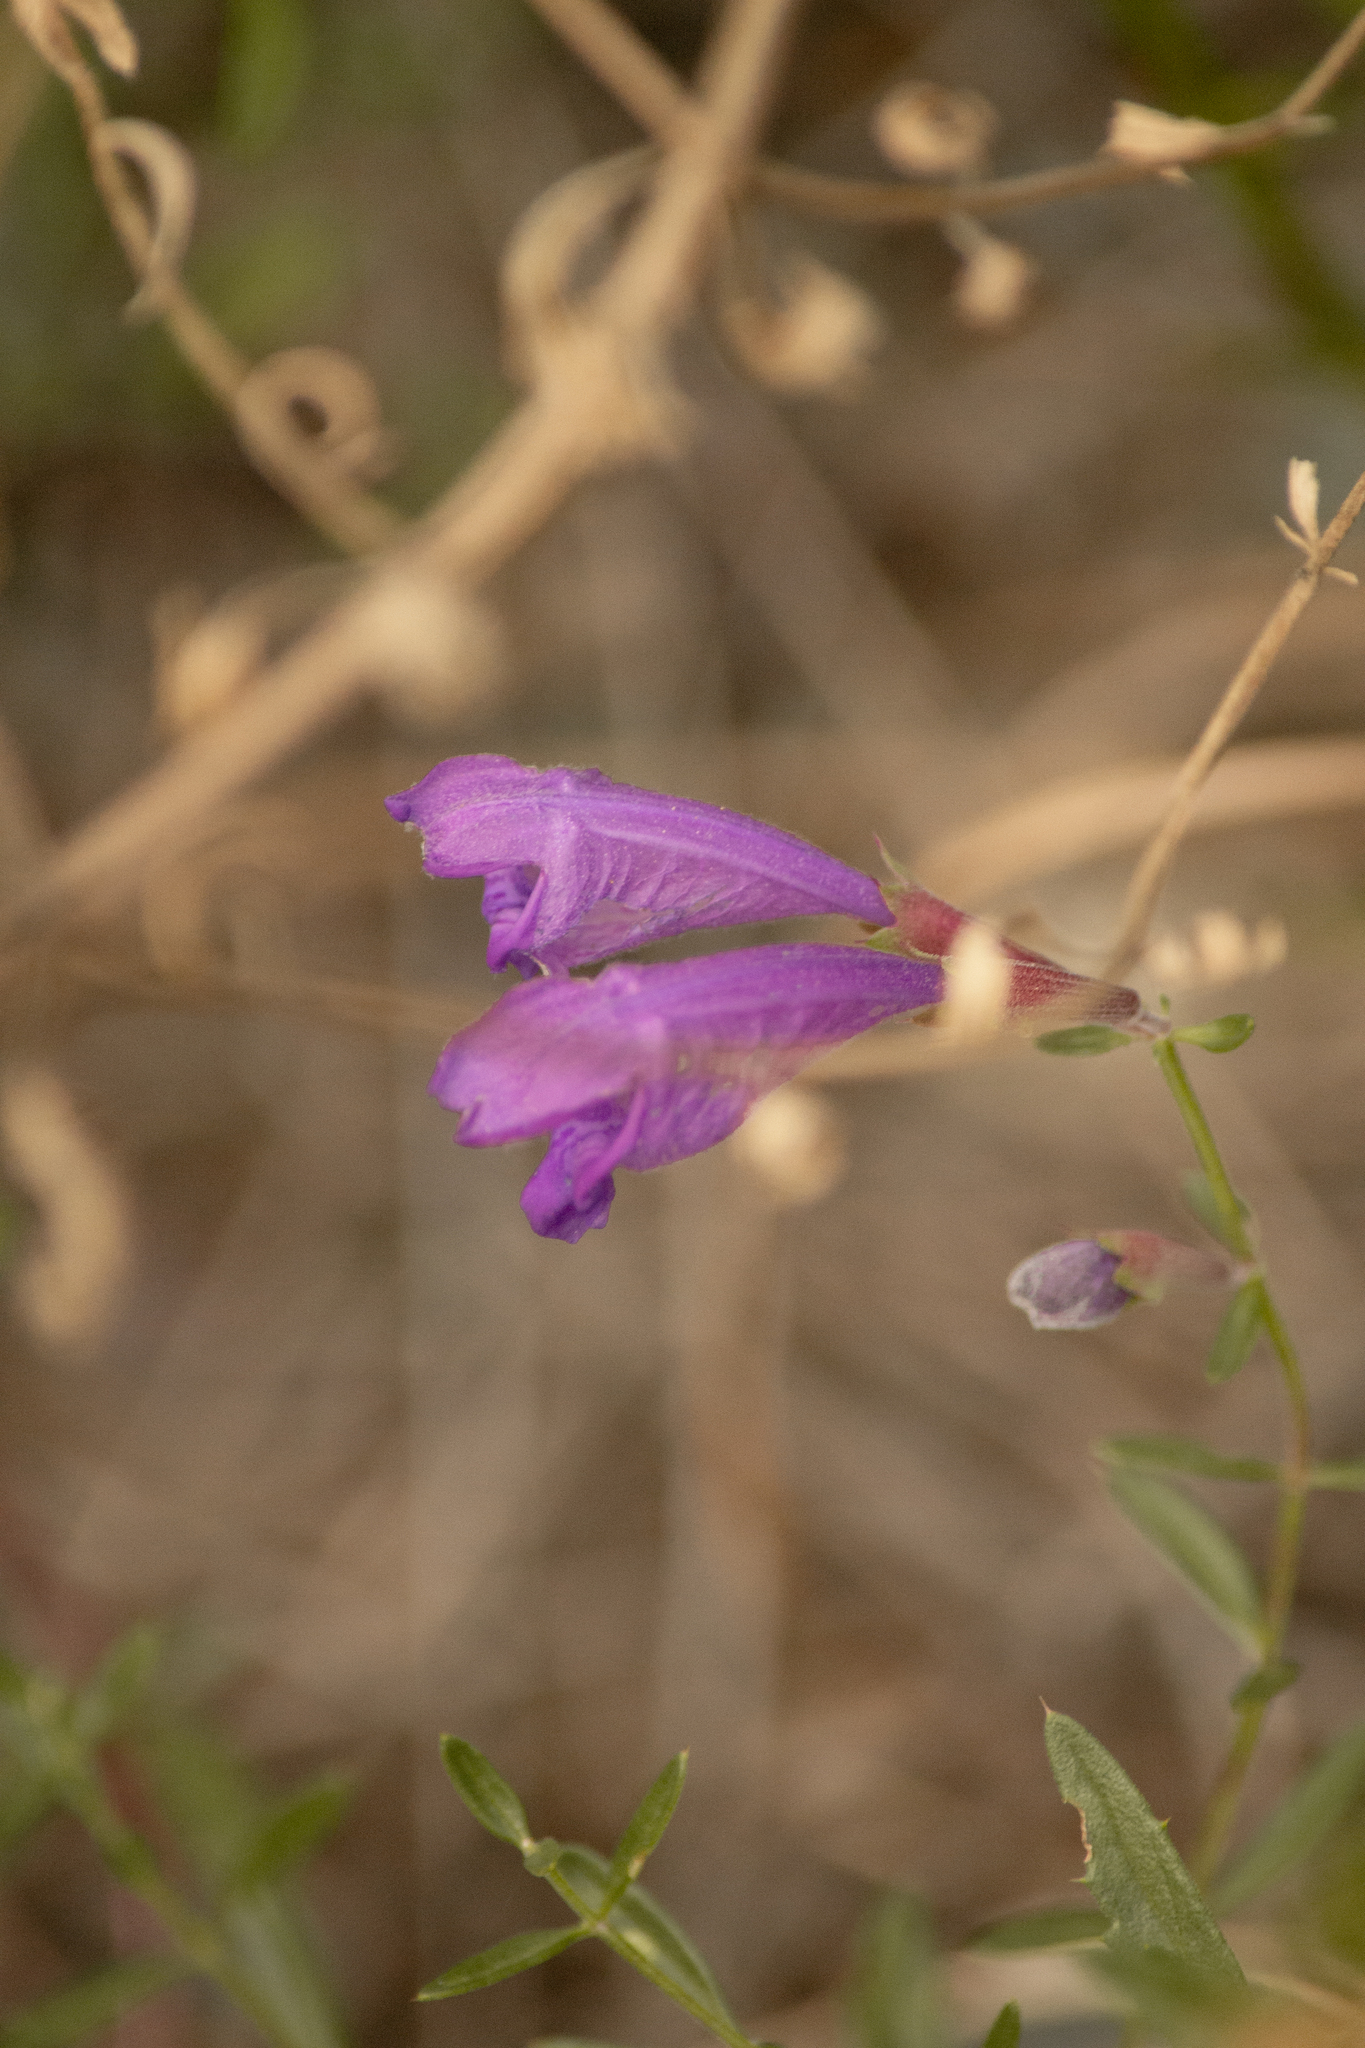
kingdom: Plantae
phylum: Tracheophyta
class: Magnoliopsida
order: Lamiales
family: Lamiaceae
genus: Dracocephalum
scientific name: Dracocephalum peregrinum
